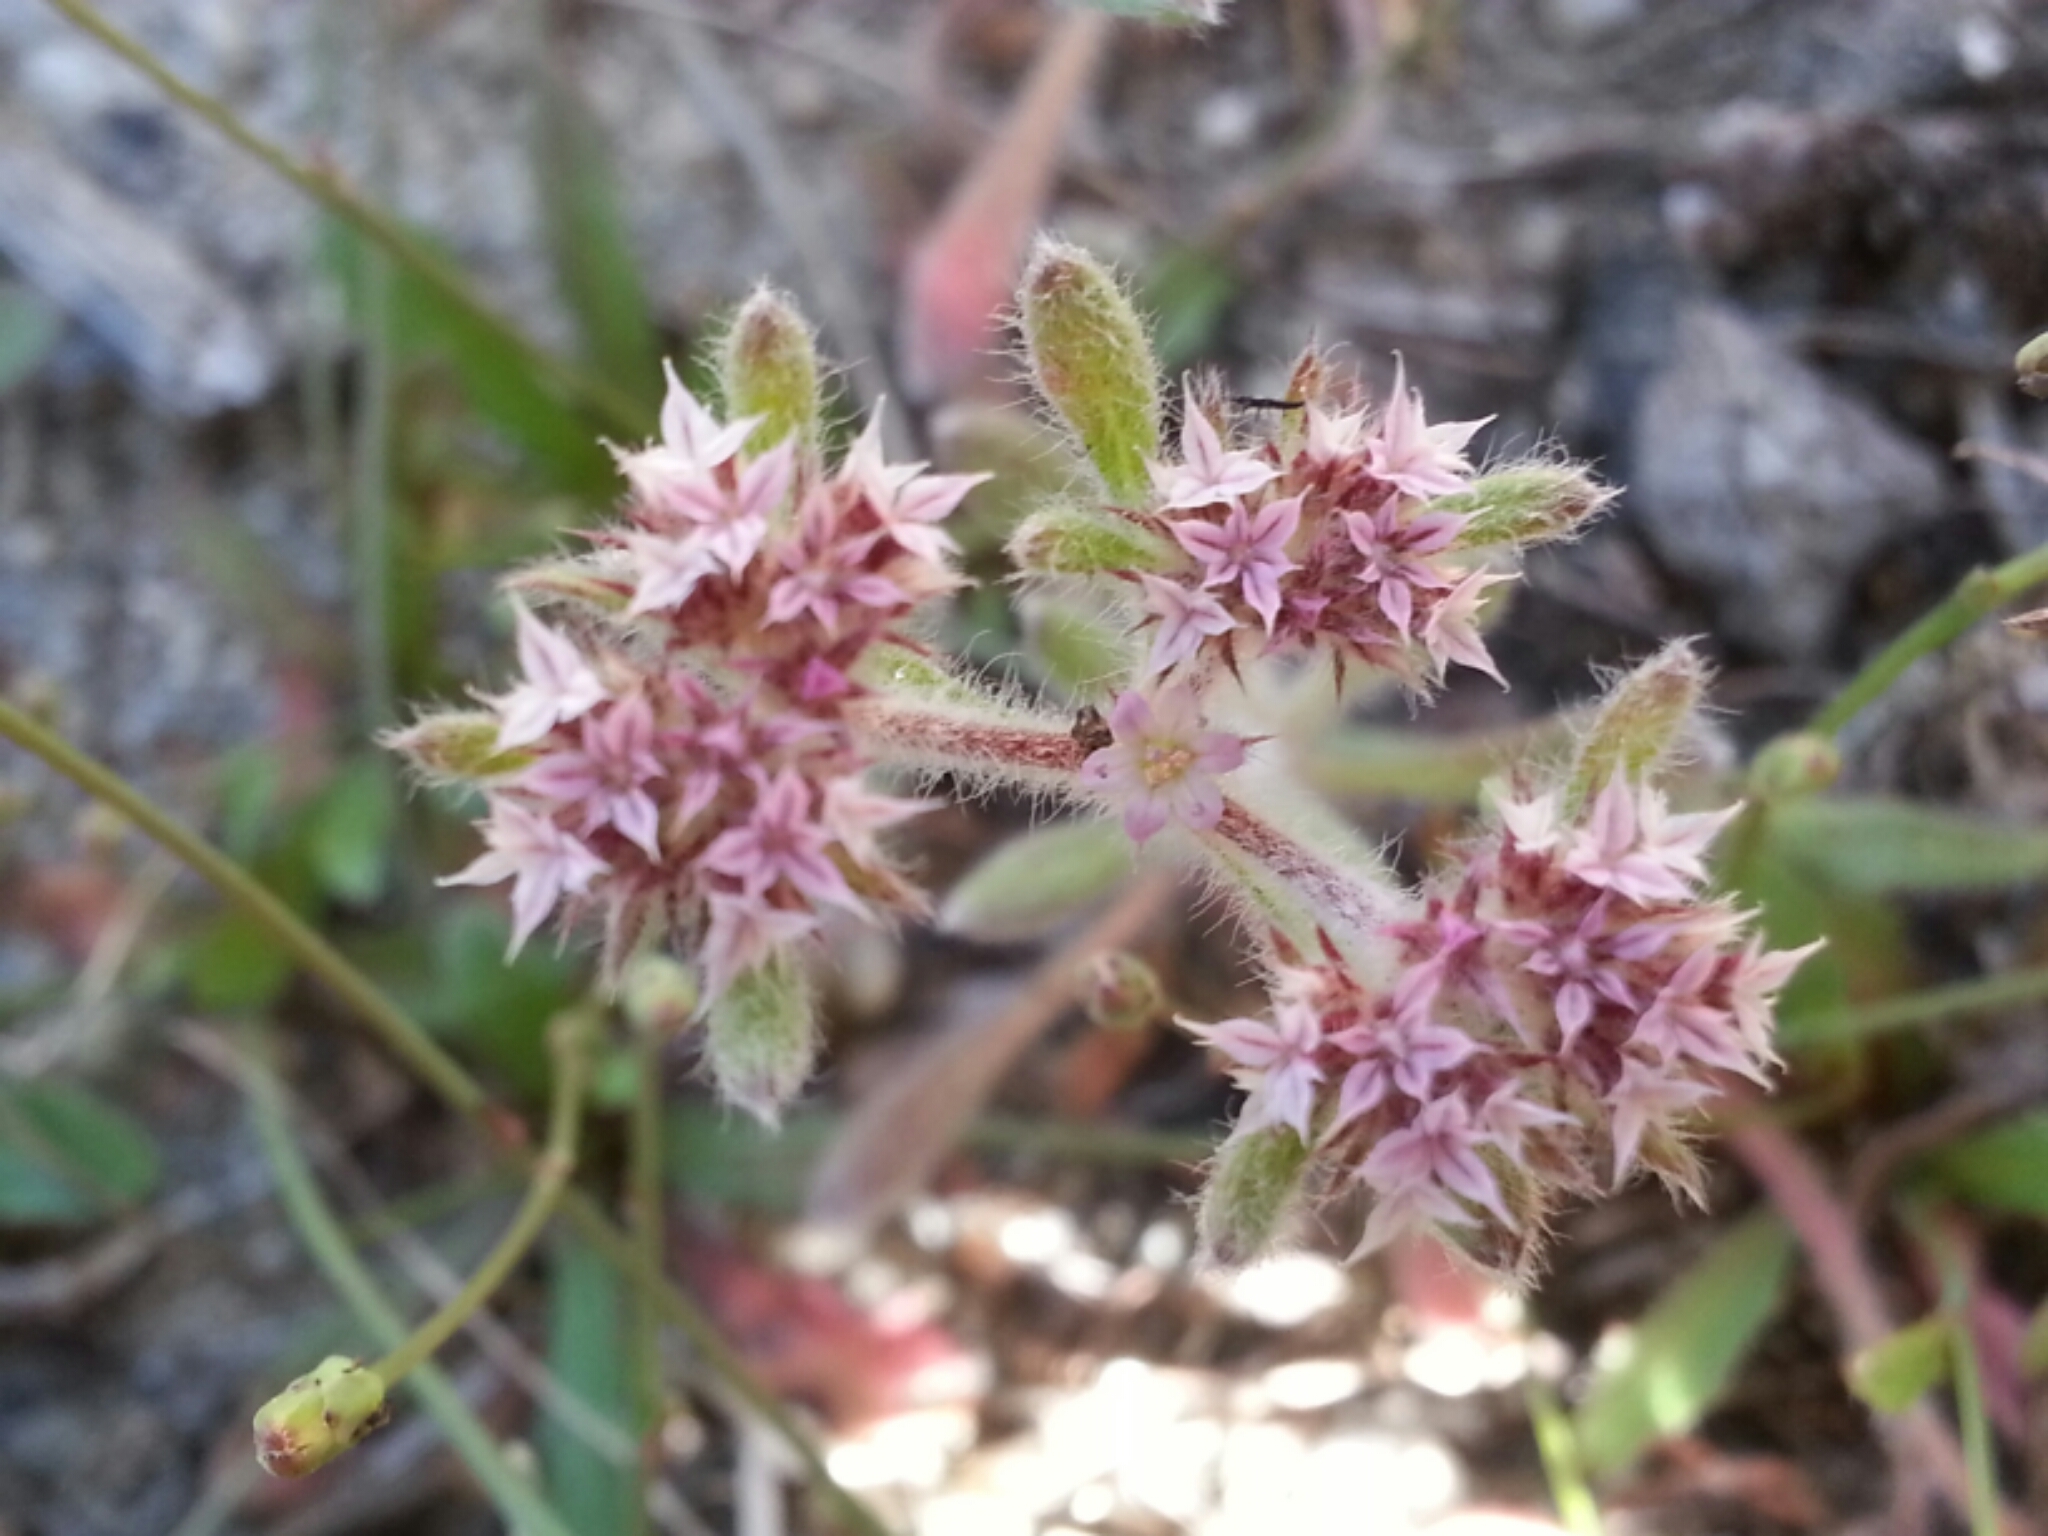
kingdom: Plantae
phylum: Tracheophyta
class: Magnoliopsida
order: Caryophyllales
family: Polygonaceae
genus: Chorizanthe
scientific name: Chorizanthe pungens
